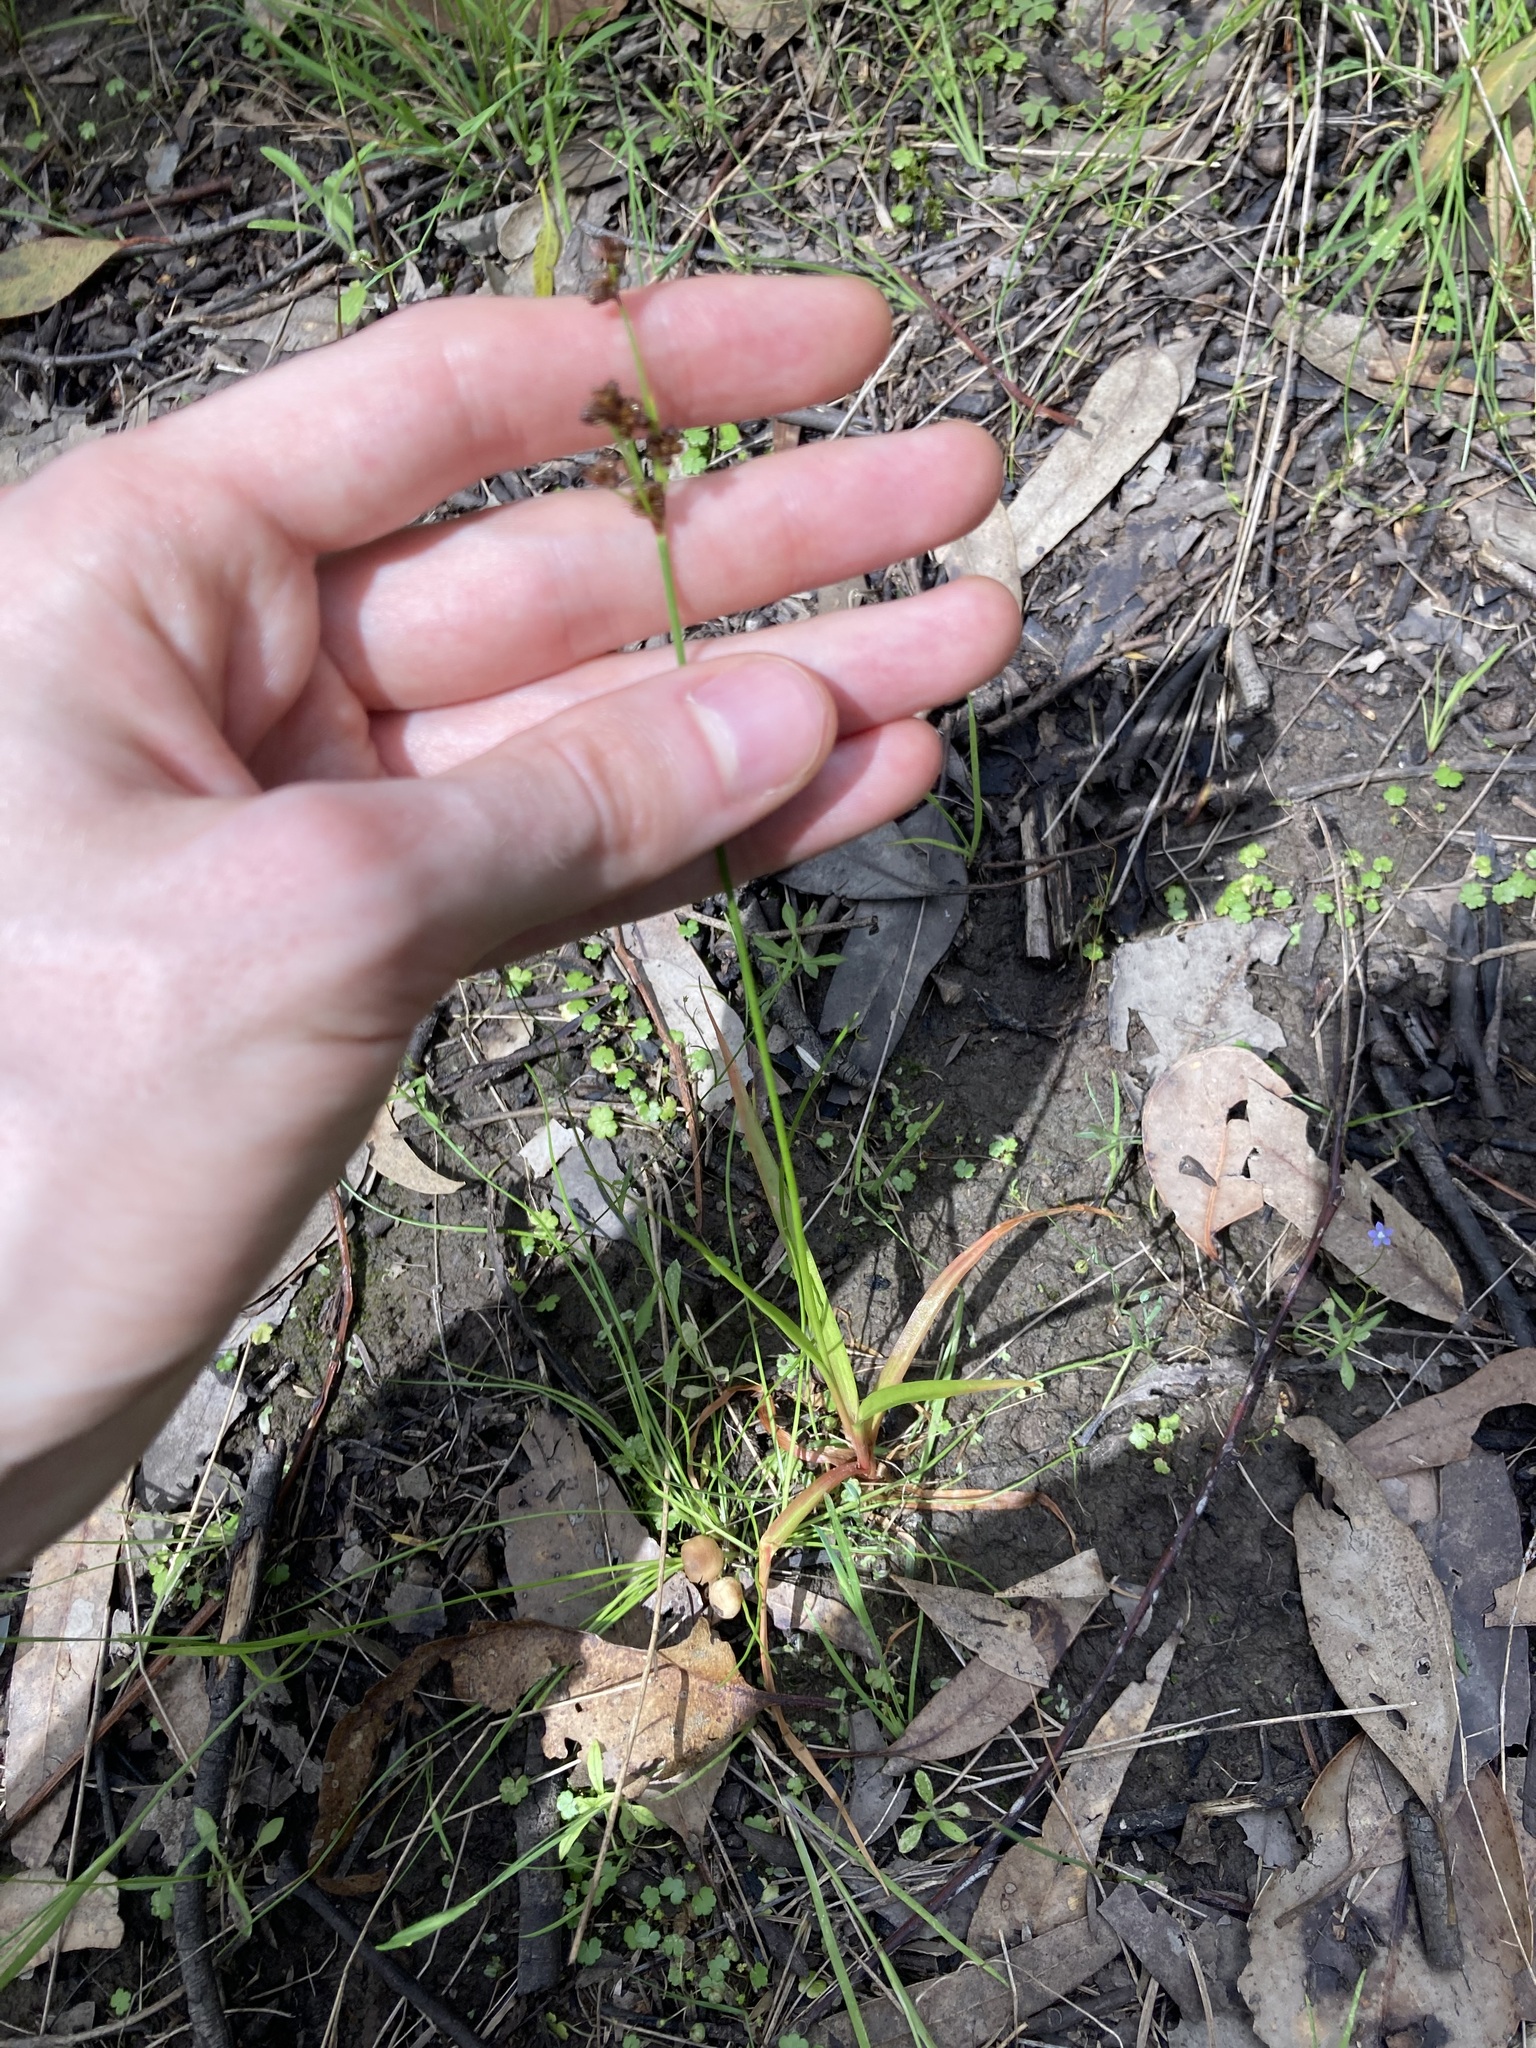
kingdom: Plantae
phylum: Tracheophyta
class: Liliopsida
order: Poales
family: Juncaceae
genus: Juncus
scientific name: Juncus planifolius
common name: Broadleaf rush
